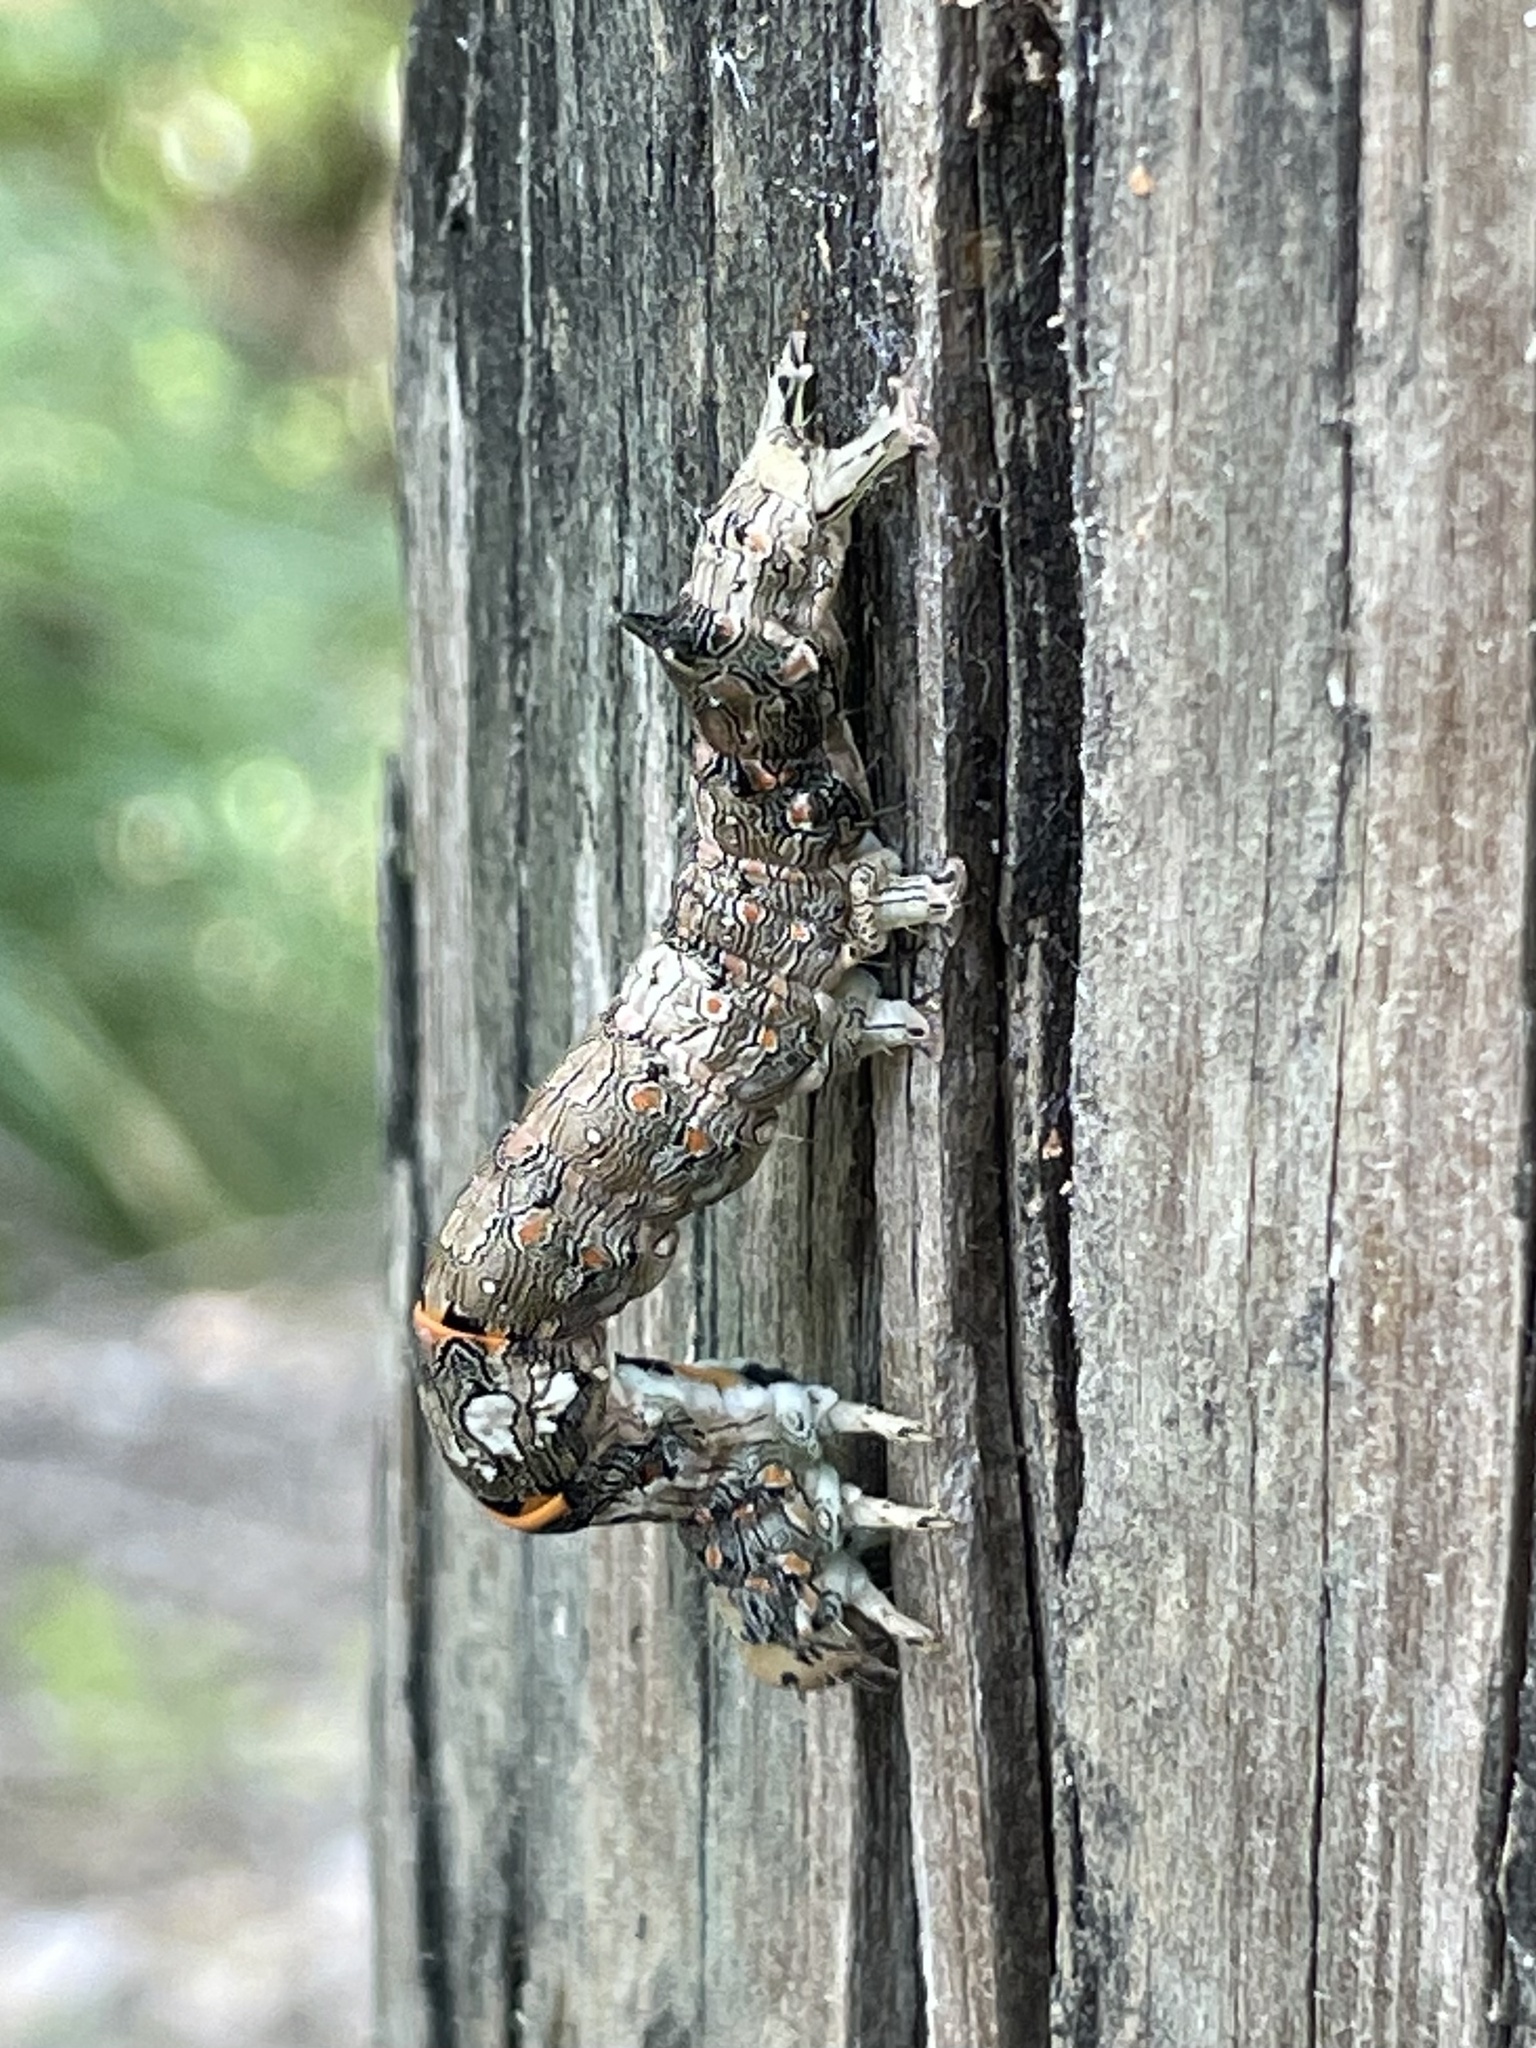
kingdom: Animalia
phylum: Arthropoda
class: Insecta
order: Lepidoptera
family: Erebidae
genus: Metria
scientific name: Metria bilineata
